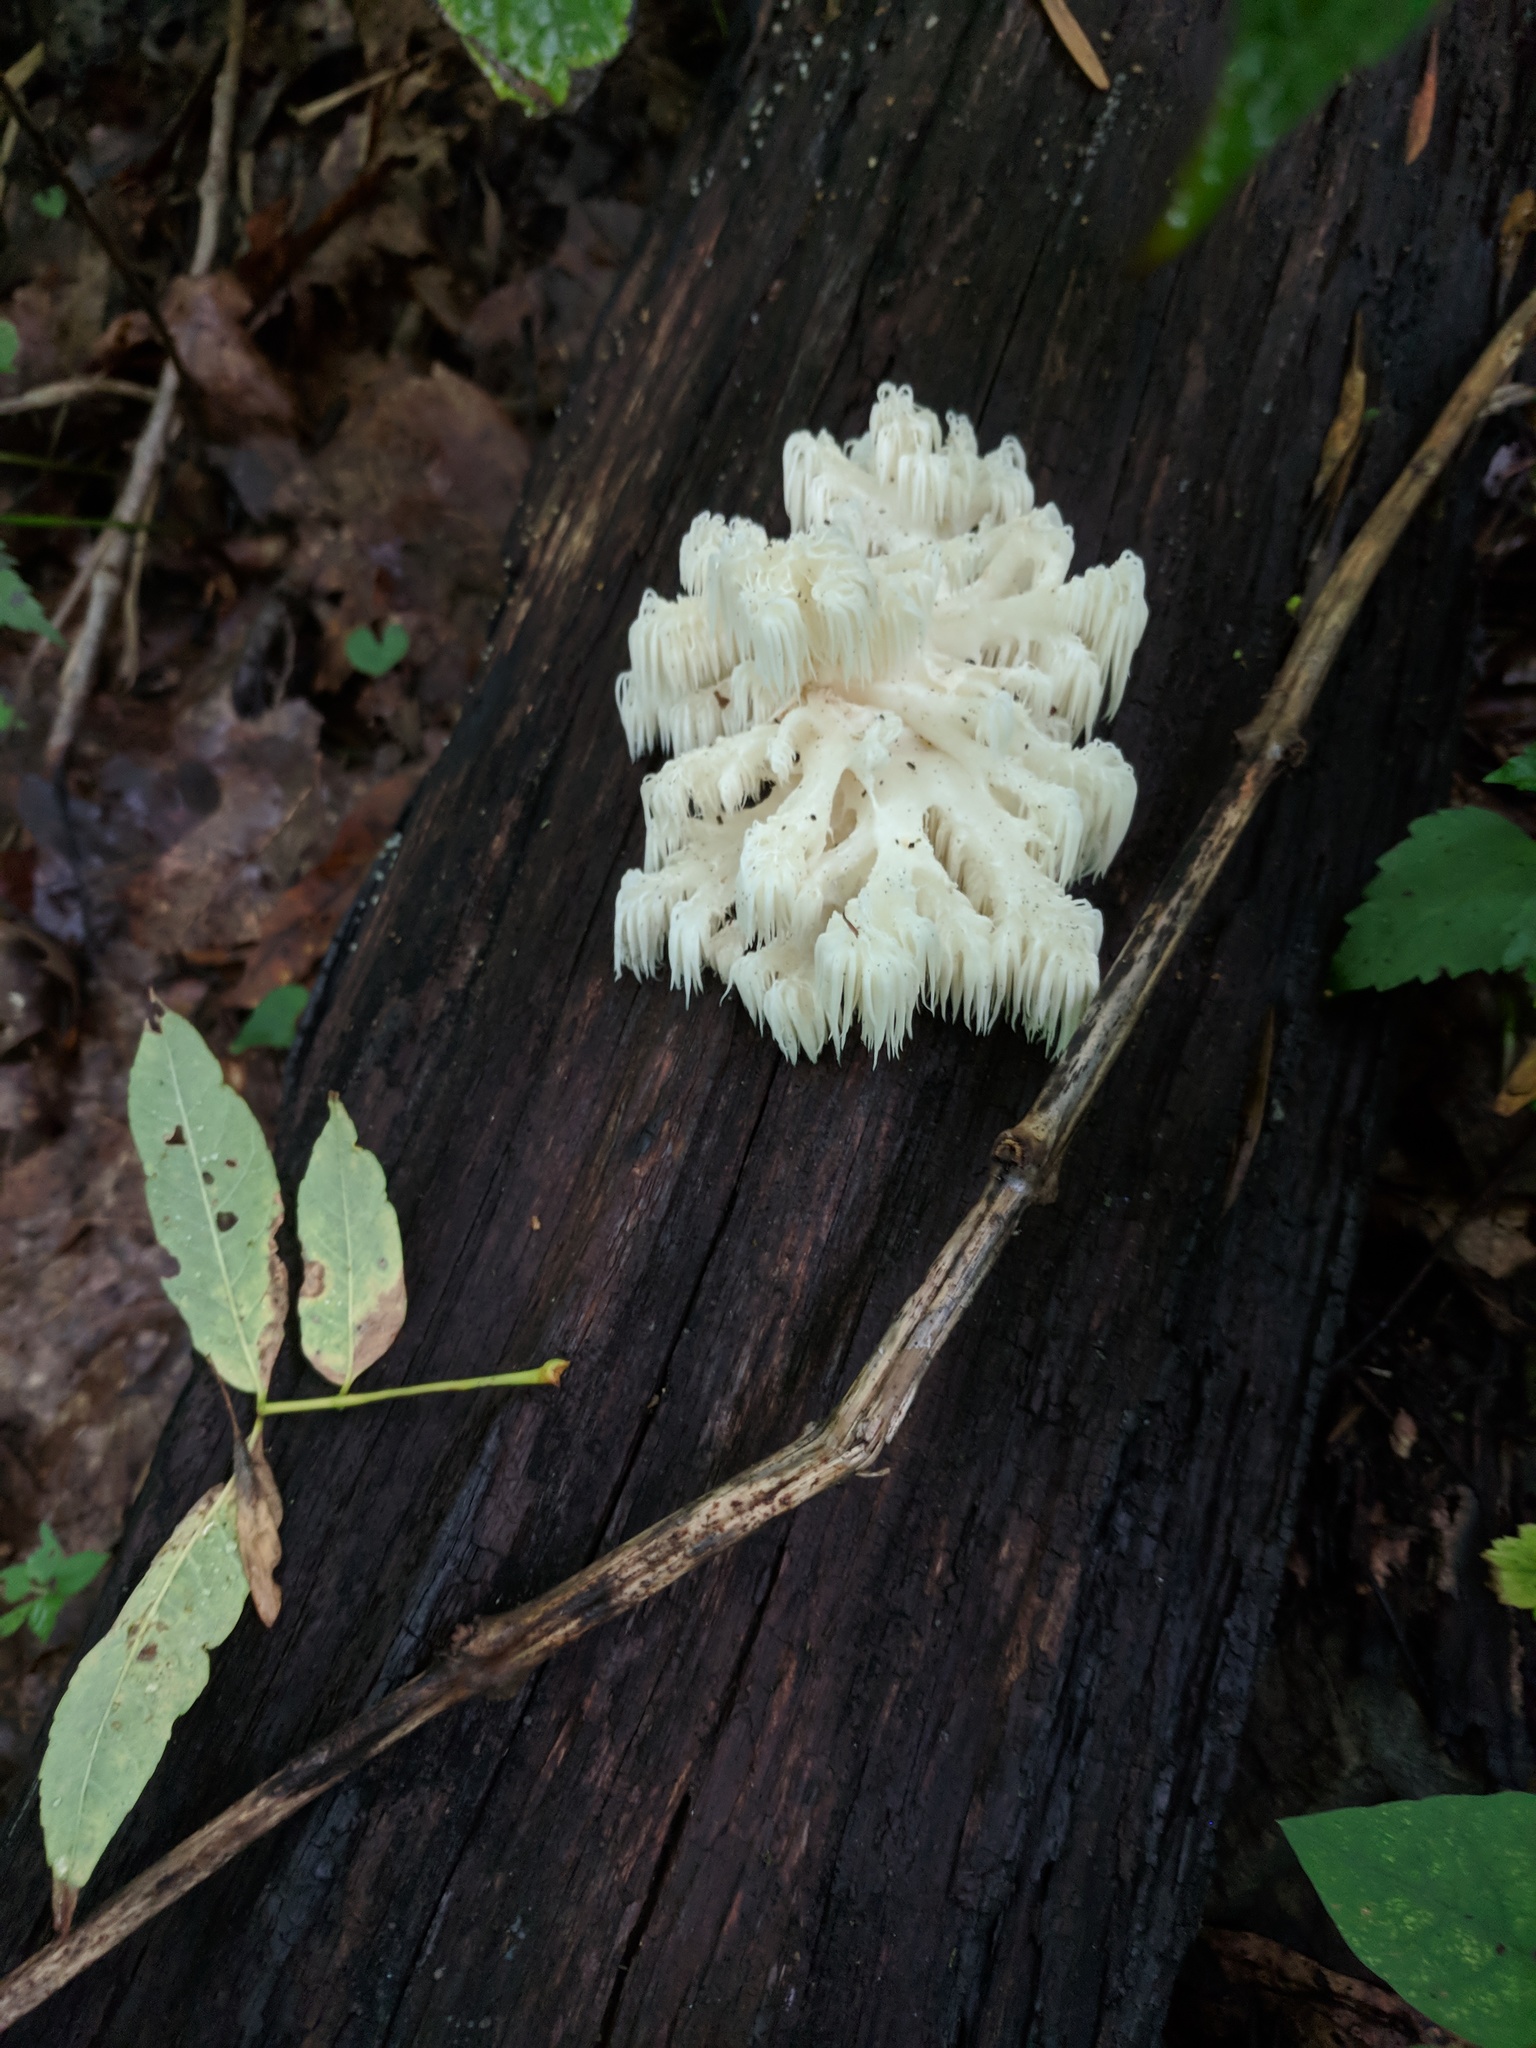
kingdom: Fungi
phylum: Basidiomycota
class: Agaricomycetes
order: Russulales
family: Hericiaceae
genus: Hericium
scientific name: Hericium americanum
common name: Bear's head tooth
